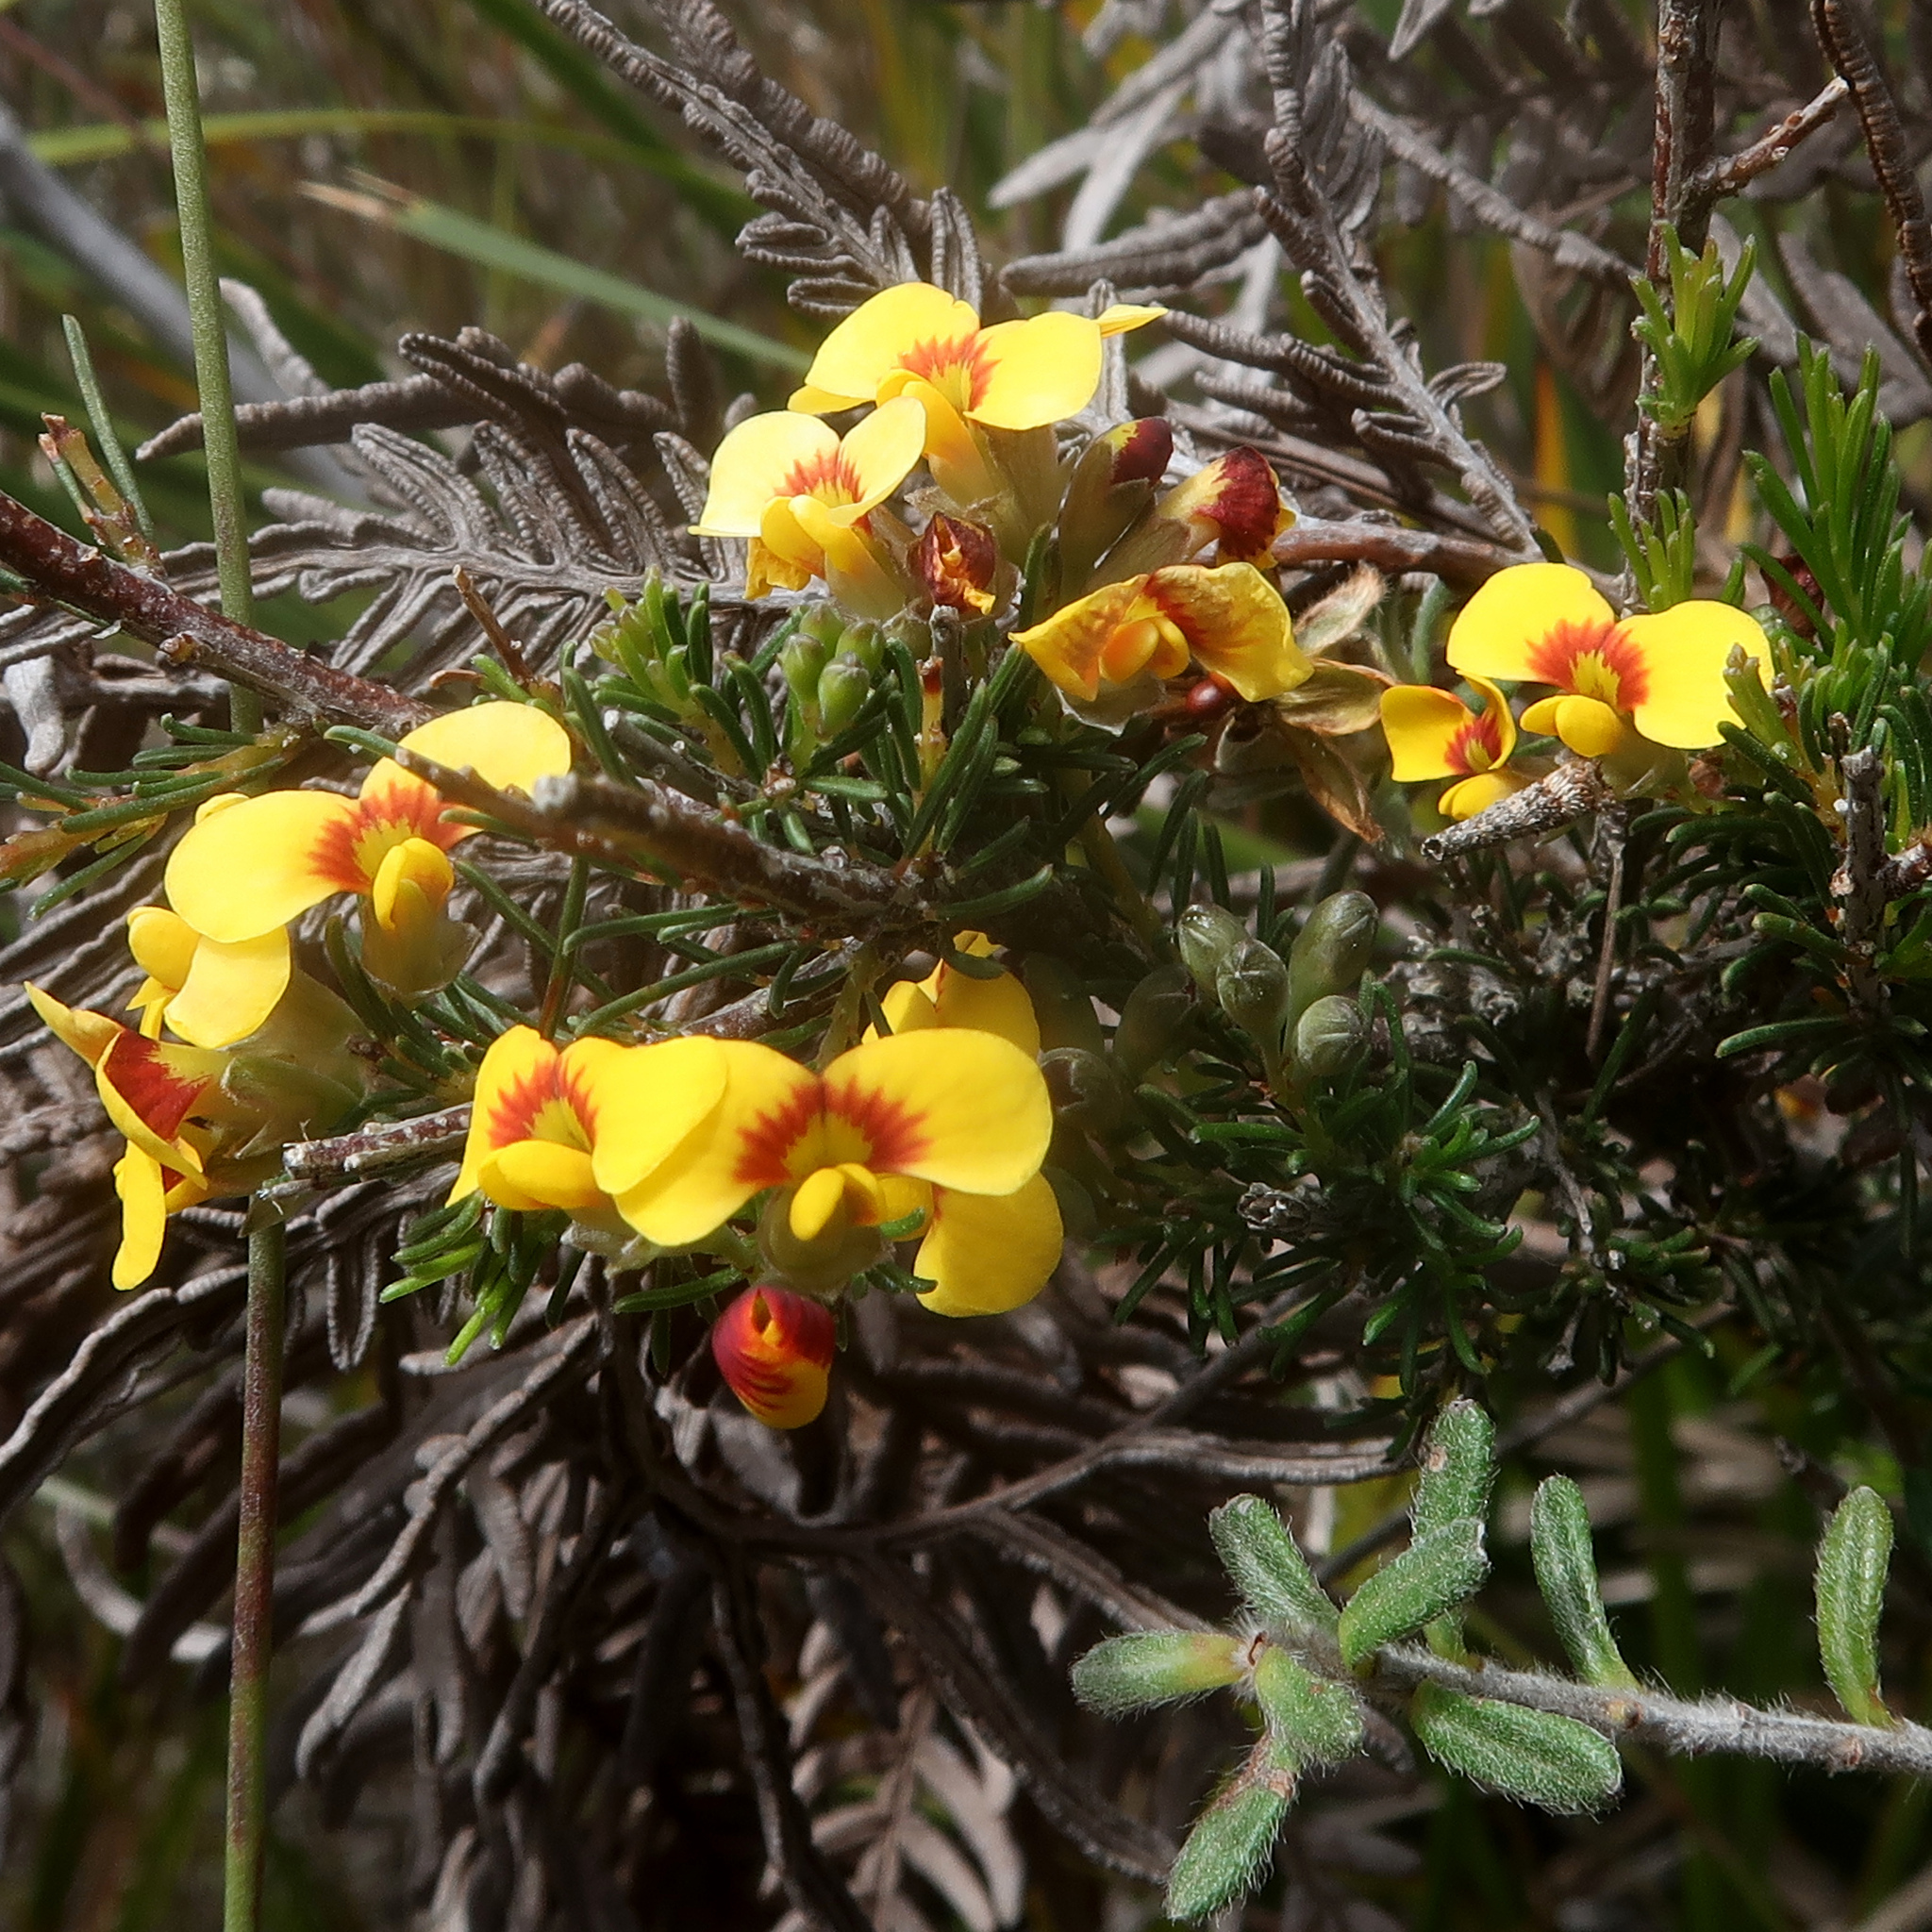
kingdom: Plantae
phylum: Tracheophyta
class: Magnoliopsida
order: Fabales
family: Fabaceae
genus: Dillwynia
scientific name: Dillwynia glaberrima
